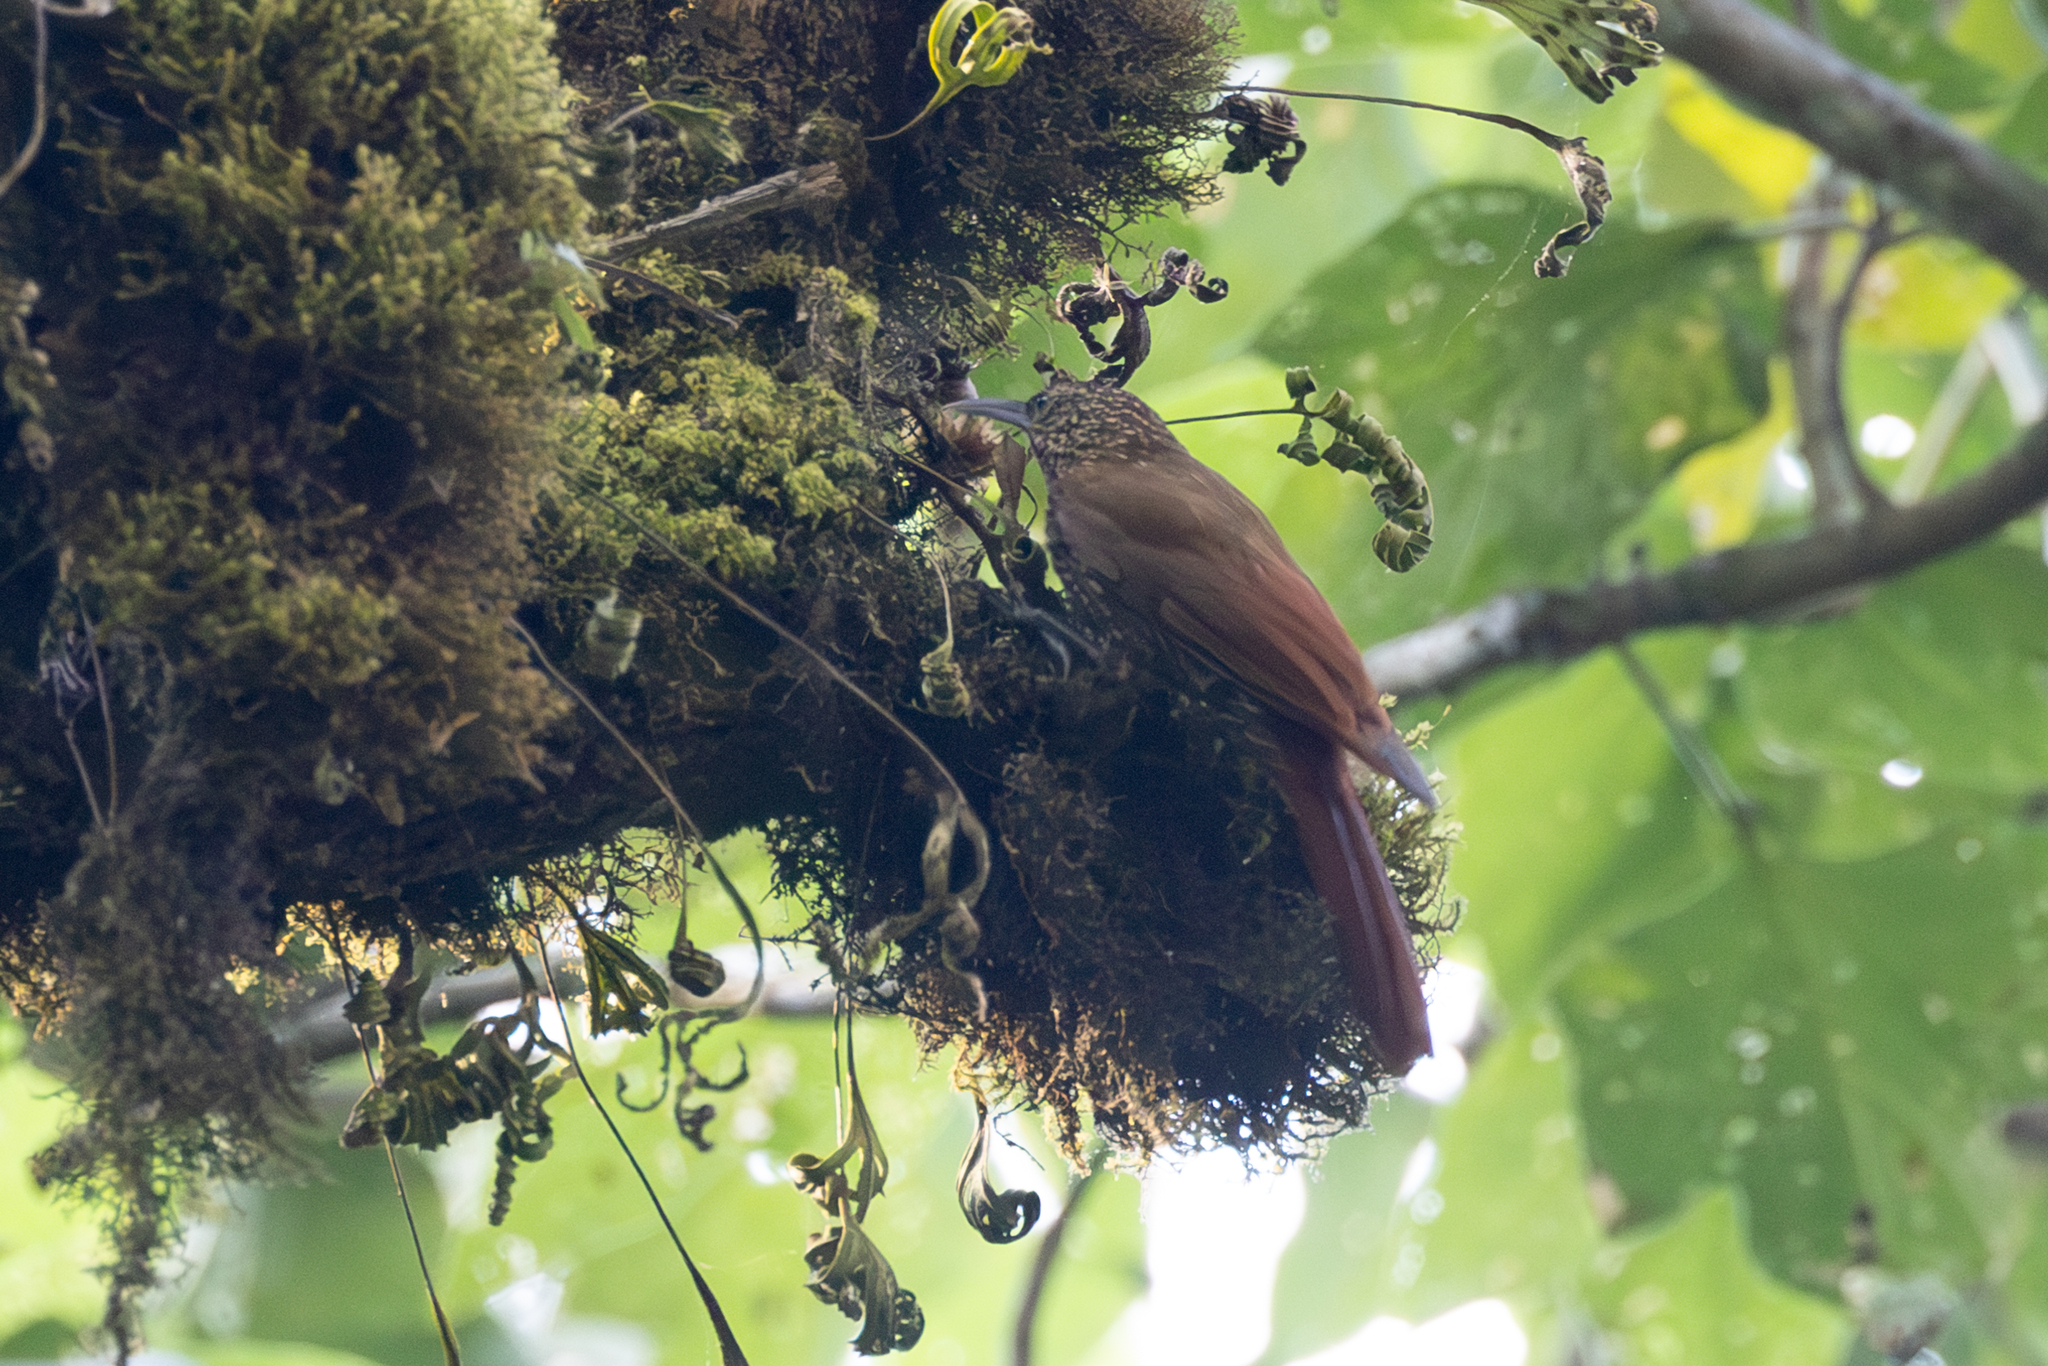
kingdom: Animalia
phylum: Chordata
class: Aves
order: Passeriformes
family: Furnariidae
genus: Lepidocolaptes
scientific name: Lepidocolaptes affinis
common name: Spot-crowned woodcreeper
